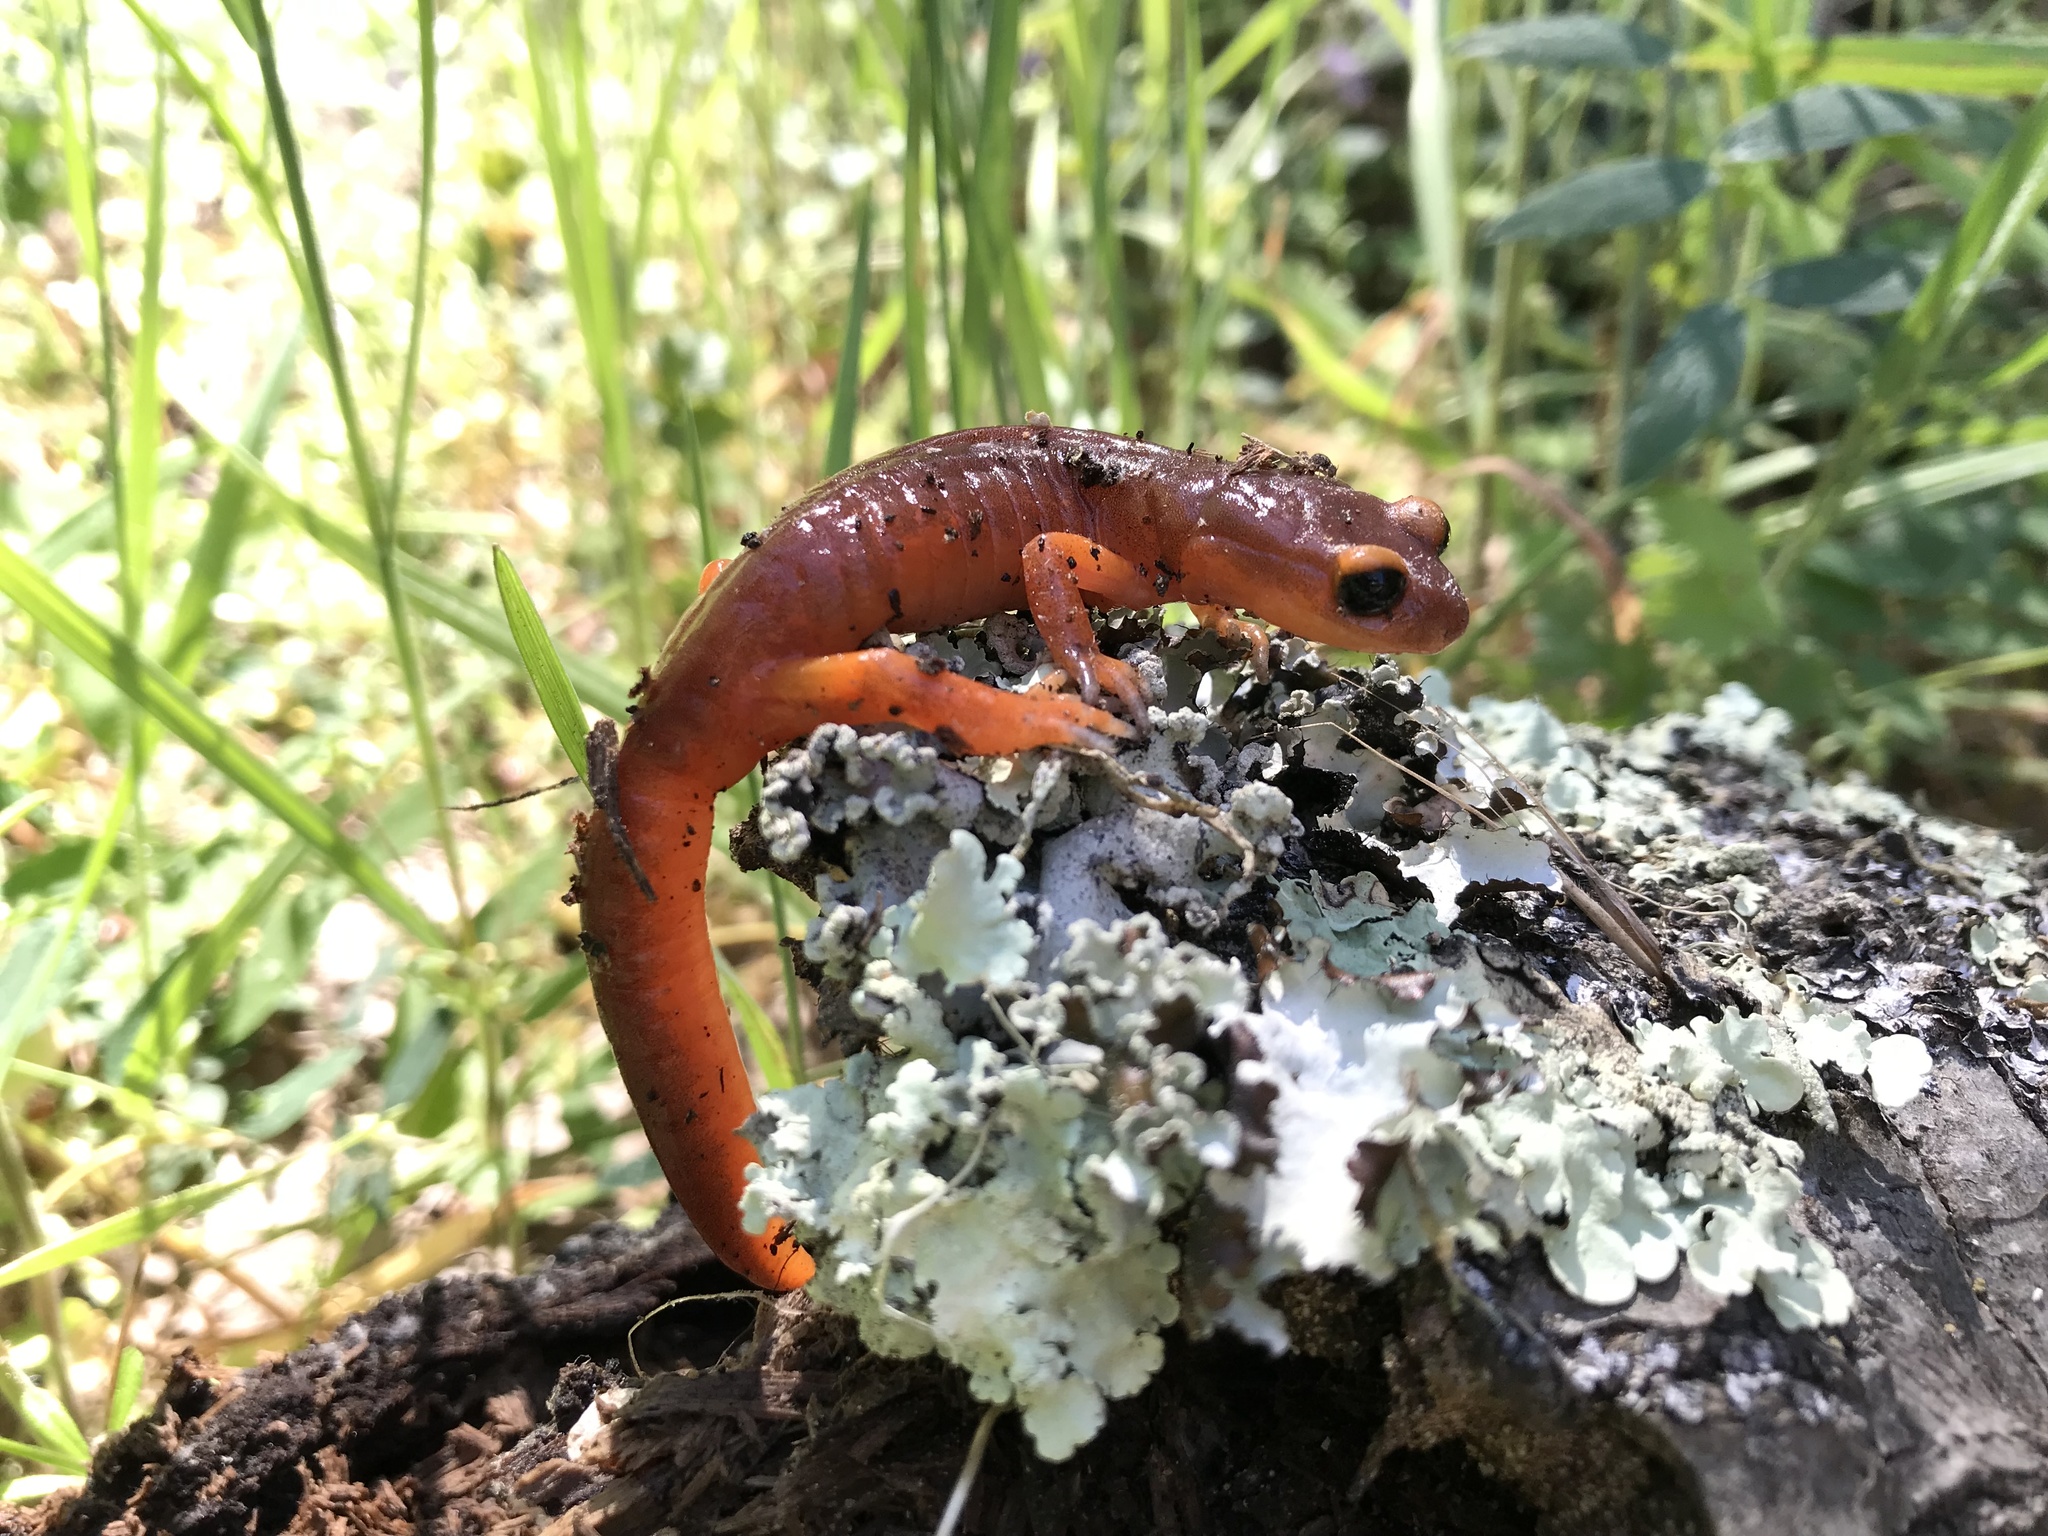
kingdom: Animalia
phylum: Chordata
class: Amphibia
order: Caudata
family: Plethodontidae
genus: Ensatina
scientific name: Ensatina eschscholtzii
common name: Ensatina
